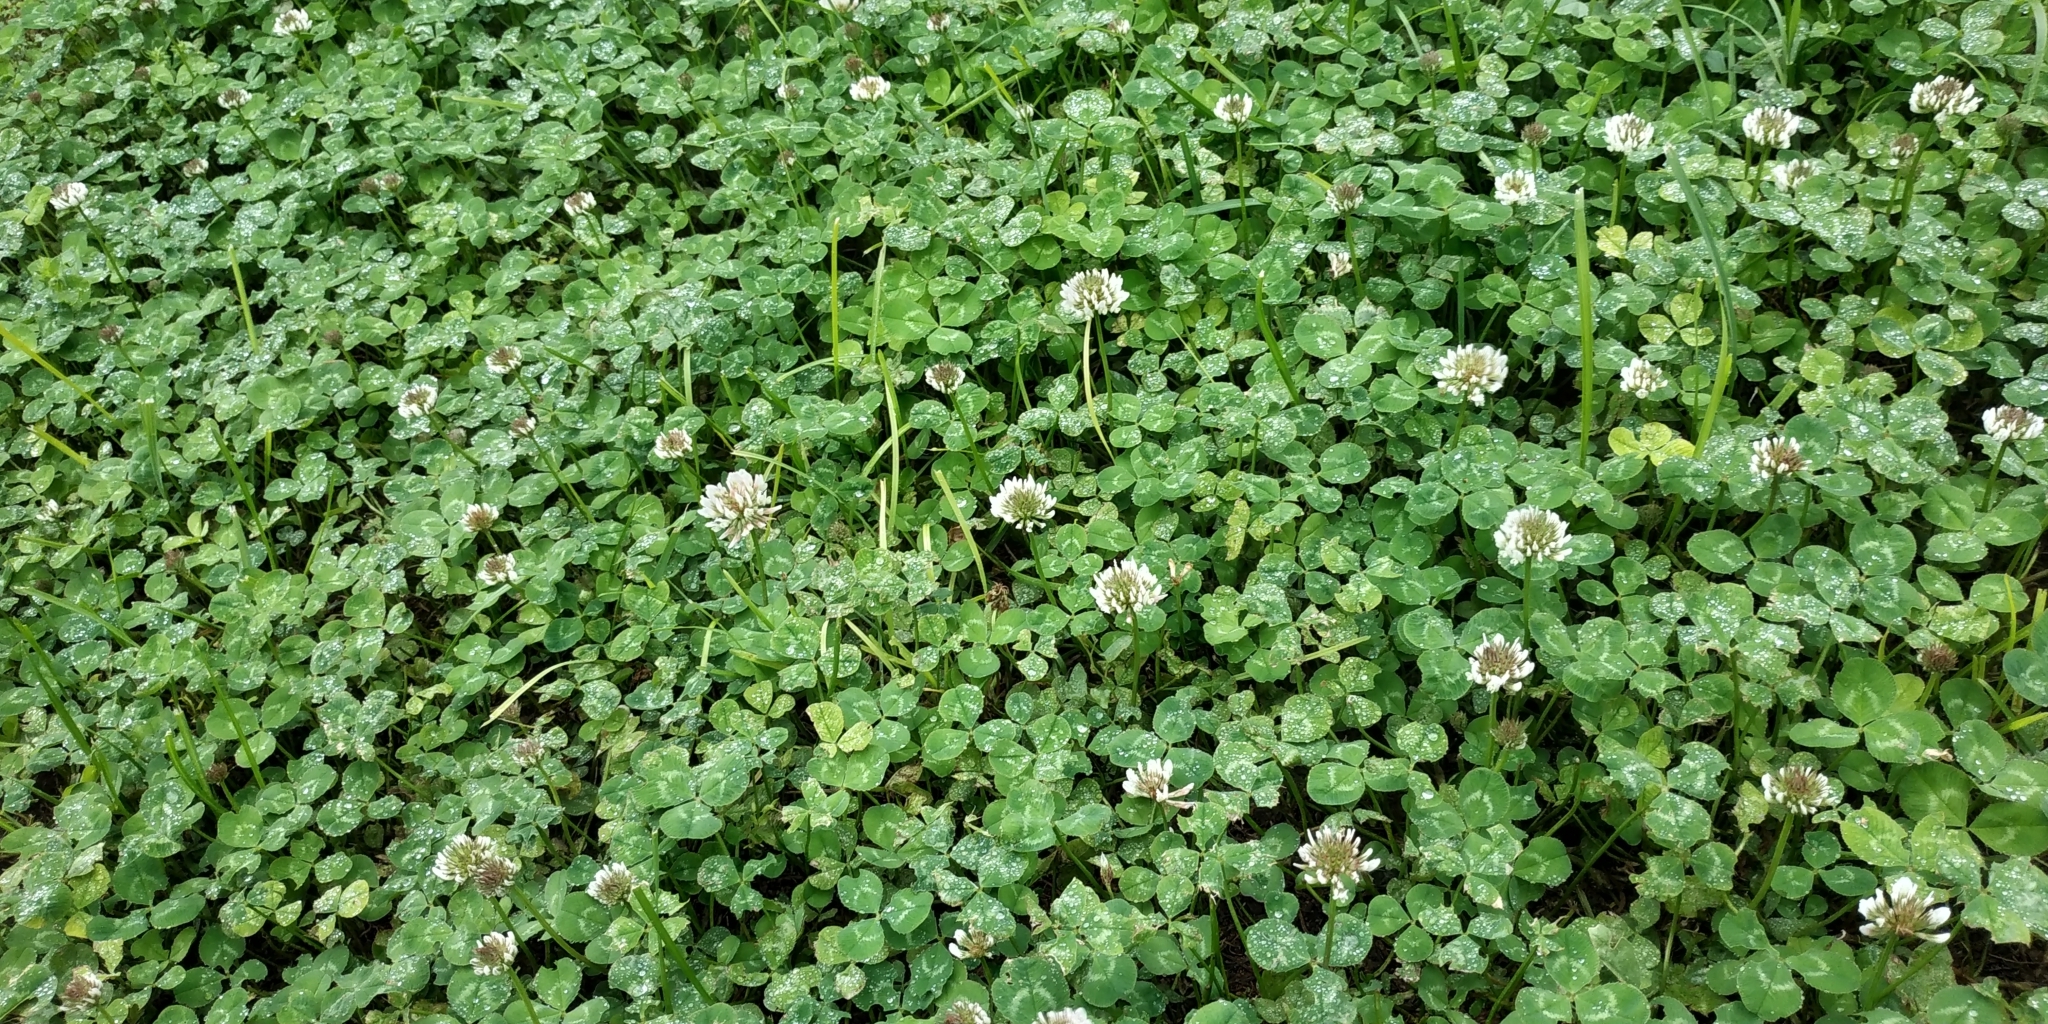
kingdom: Plantae
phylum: Tracheophyta
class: Magnoliopsida
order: Fabales
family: Fabaceae
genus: Trifolium
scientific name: Trifolium repens
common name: White clover
